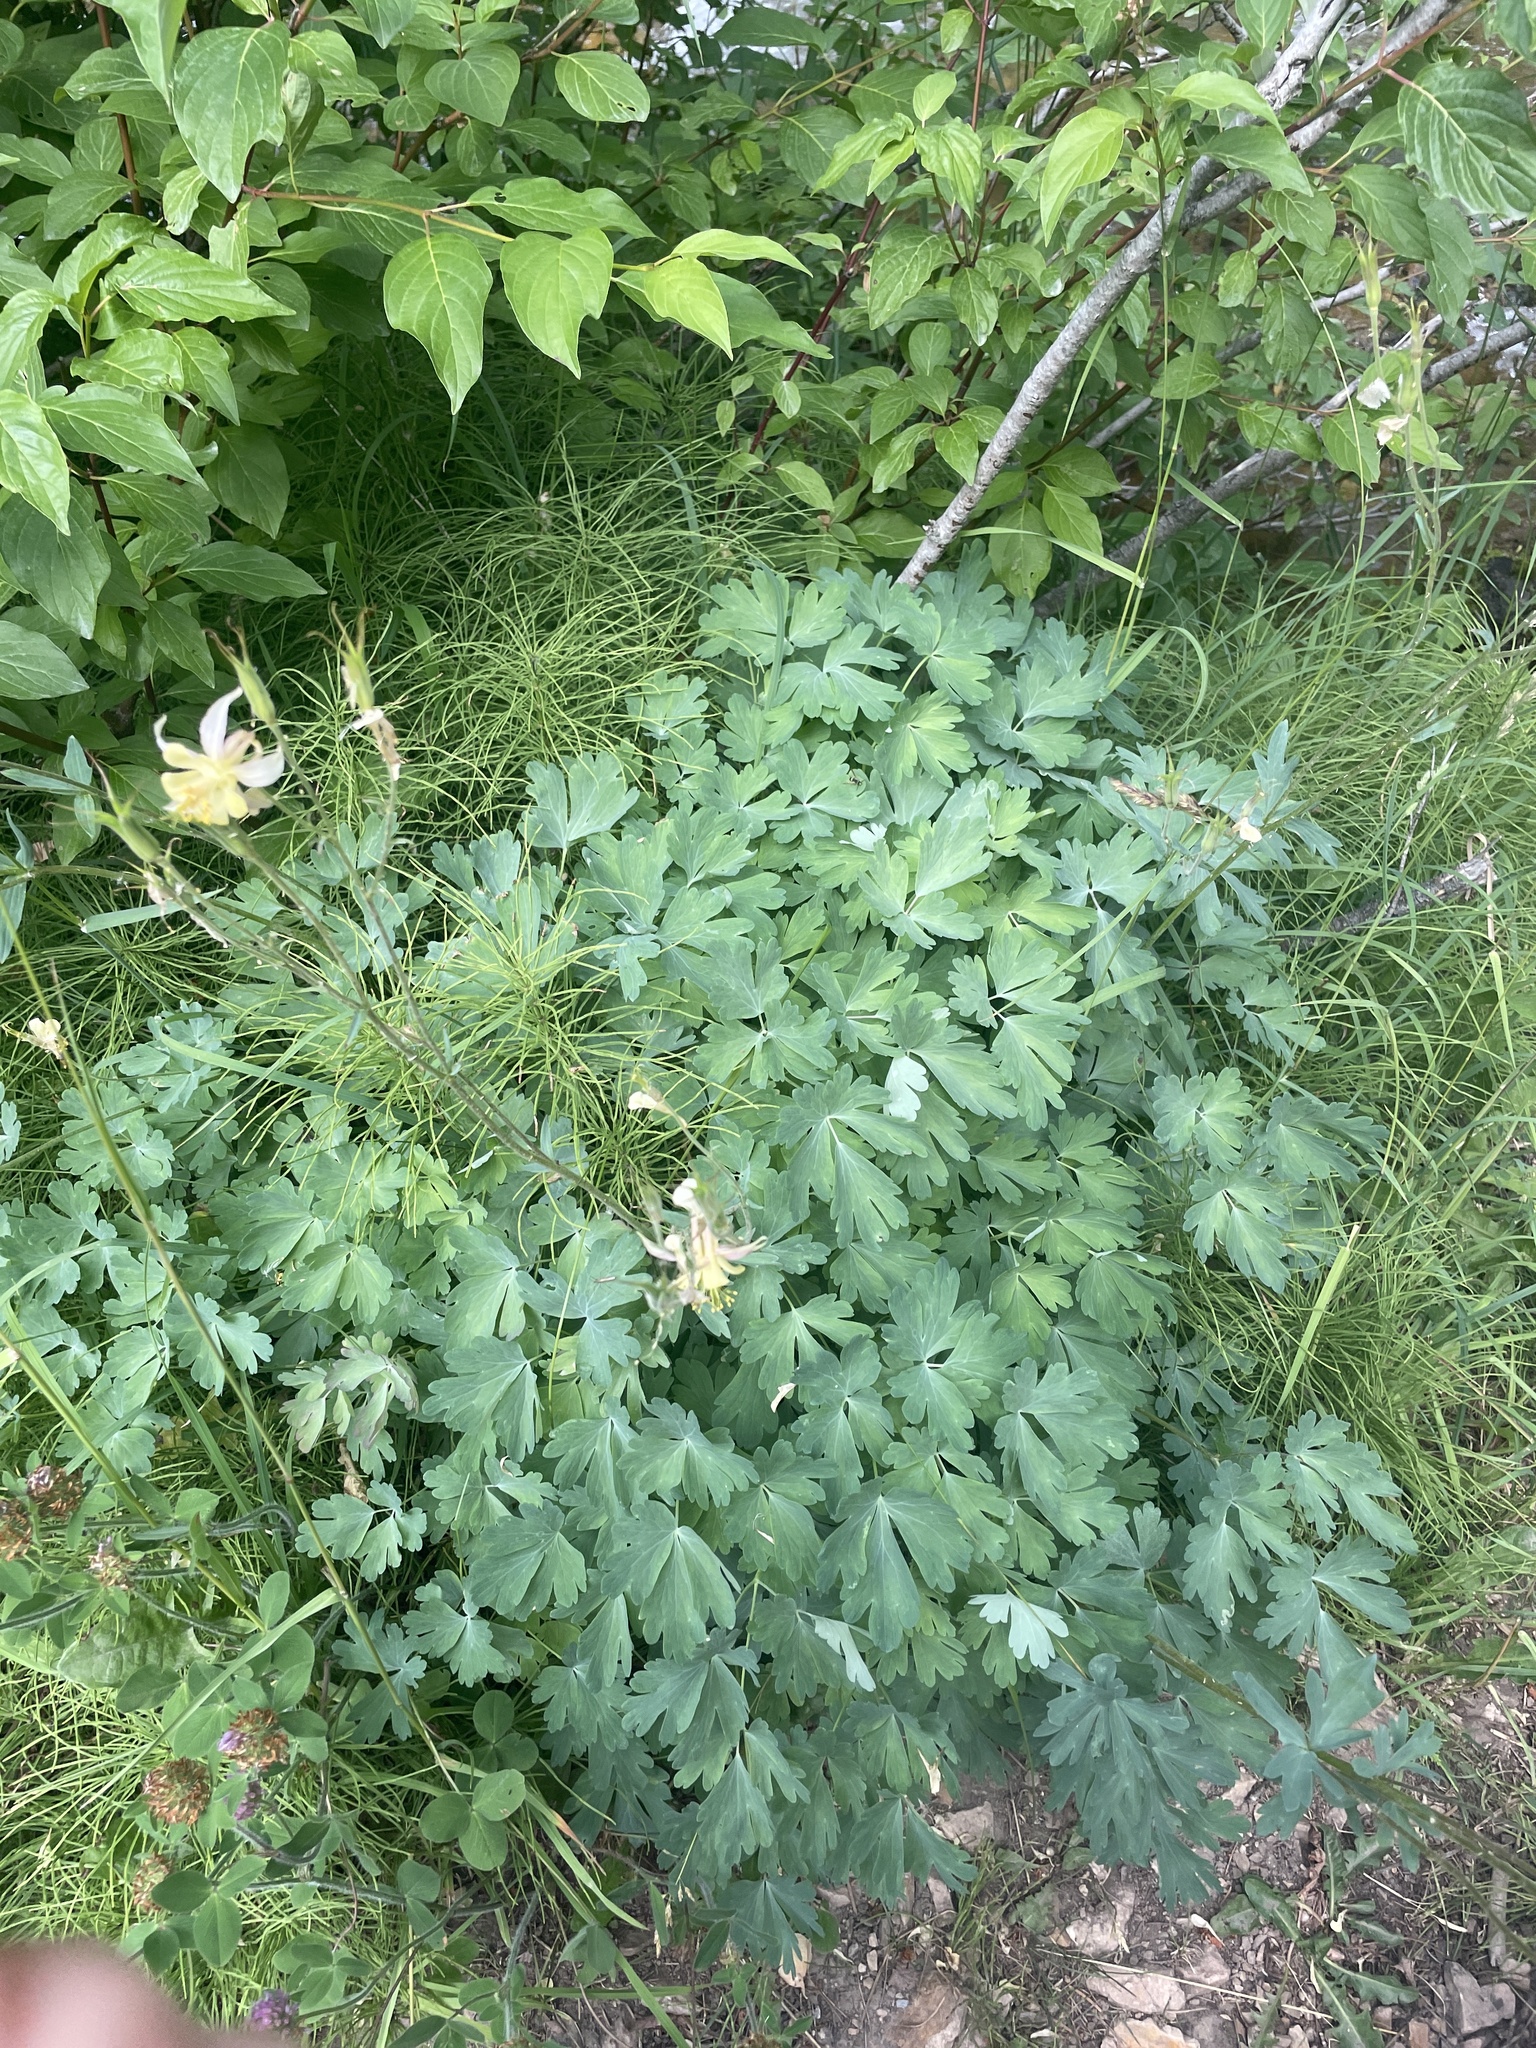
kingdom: Plantae
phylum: Tracheophyta
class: Magnoliopsida
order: Ranunculales
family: Ranunculaceae
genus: Aquilegia
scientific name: Aquilegia flavescens
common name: Yellow columbine
